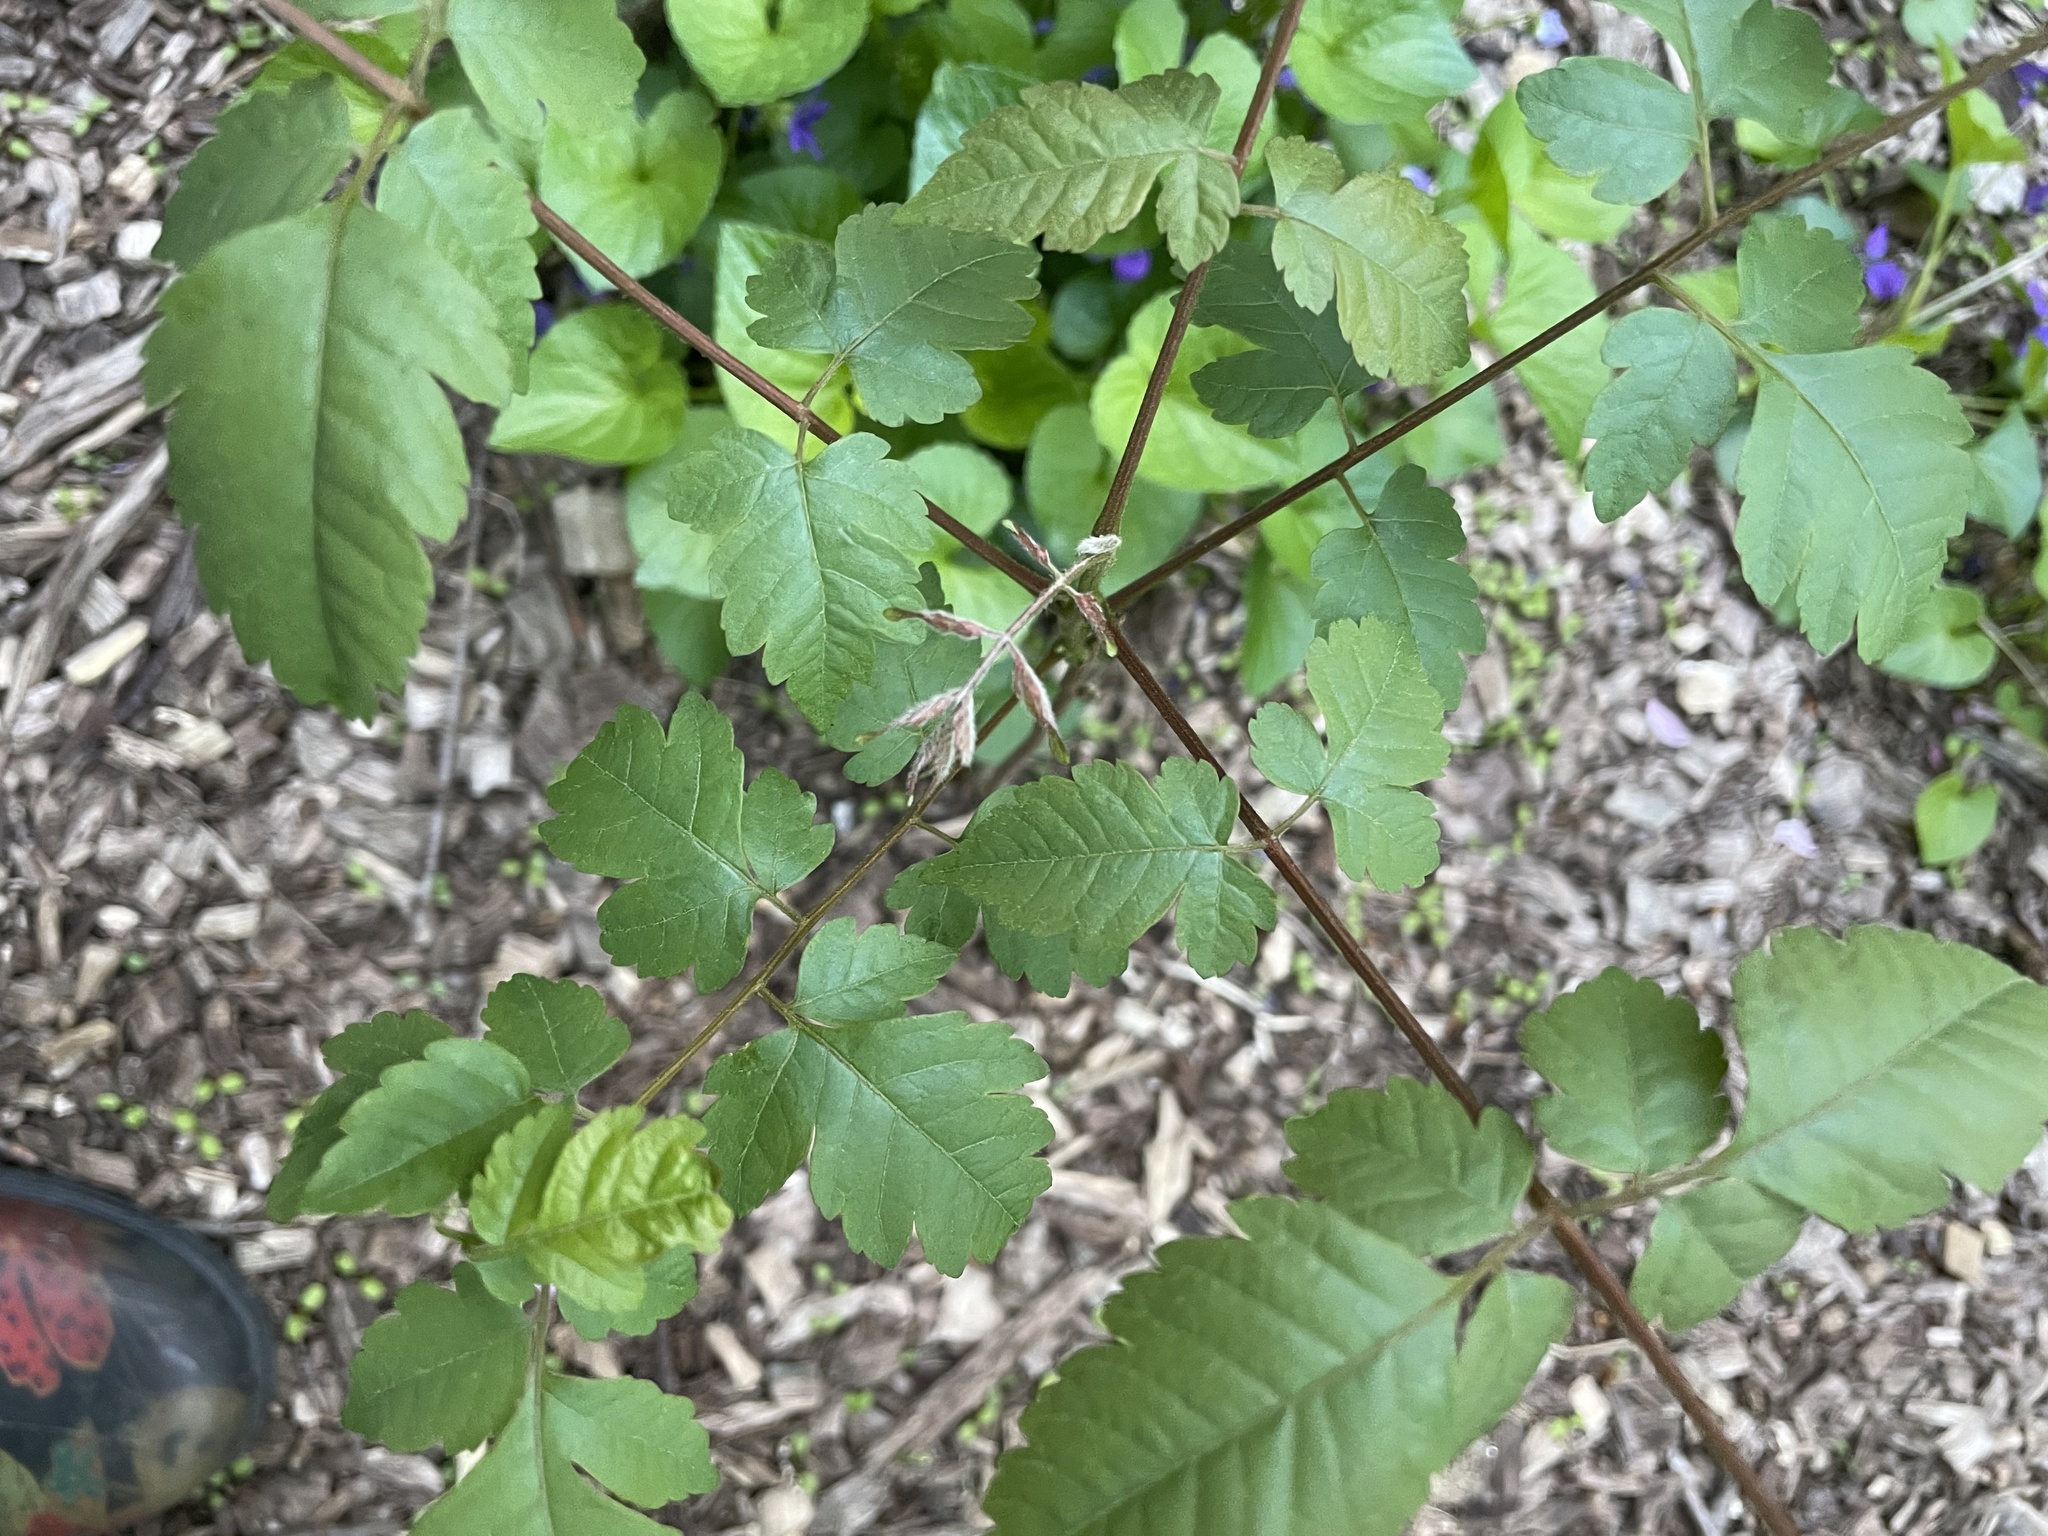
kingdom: Plantae
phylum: Tracheophyta
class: Magnoliopsida
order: Sapindales
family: Sapindaceae
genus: Koelreuteria
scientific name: Koelreuteria paniculata
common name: Pride-of-india
